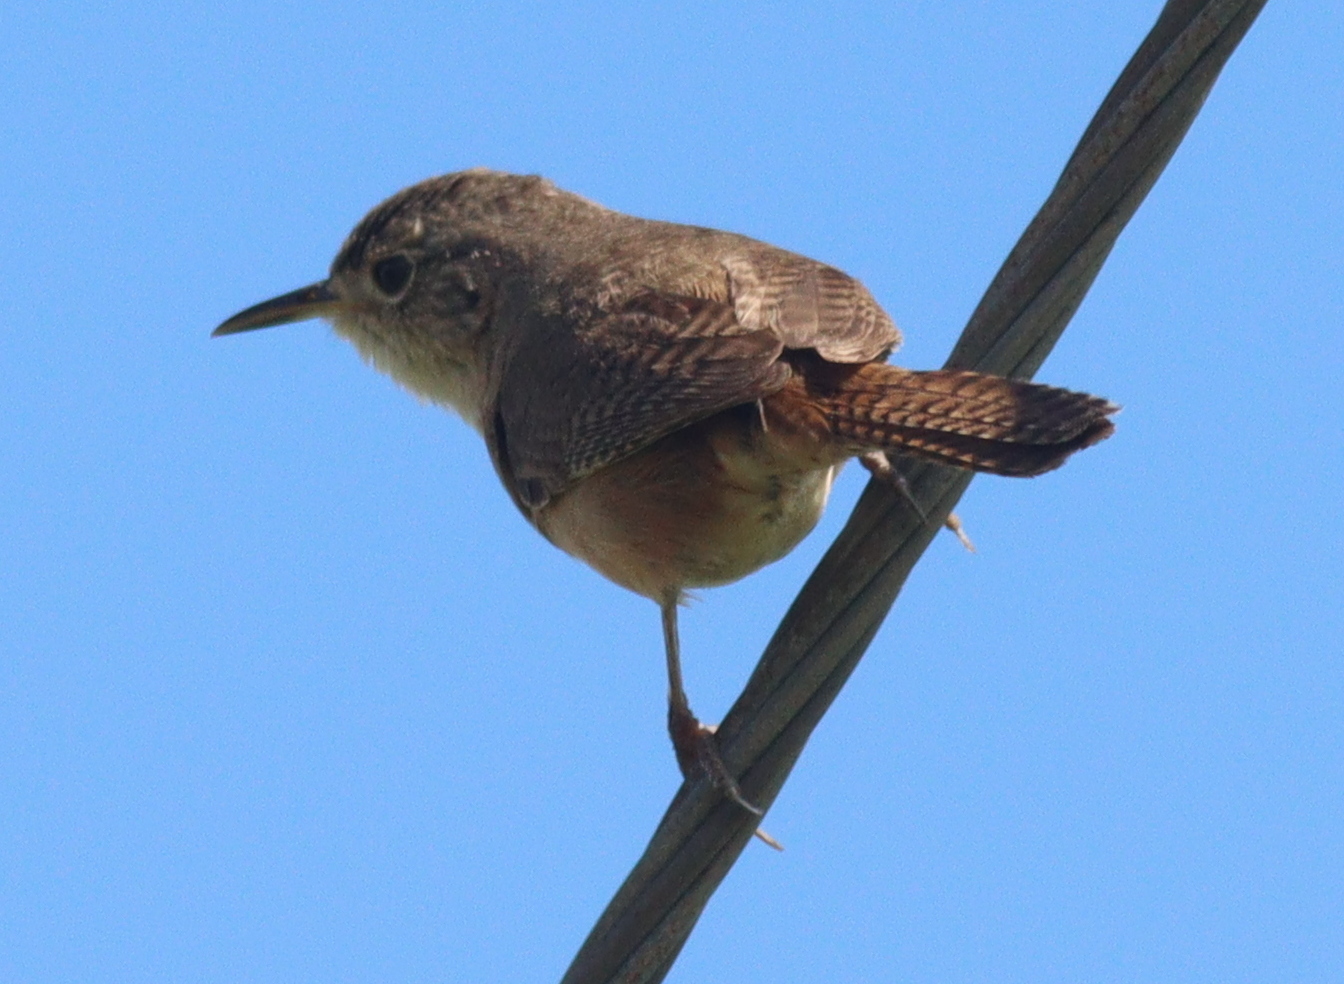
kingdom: Animalia
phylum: Chordata
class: Aves
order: Passeriformes
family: Troglodytidae
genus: Troglodytes
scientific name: Troglodytes aedon
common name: House wren
